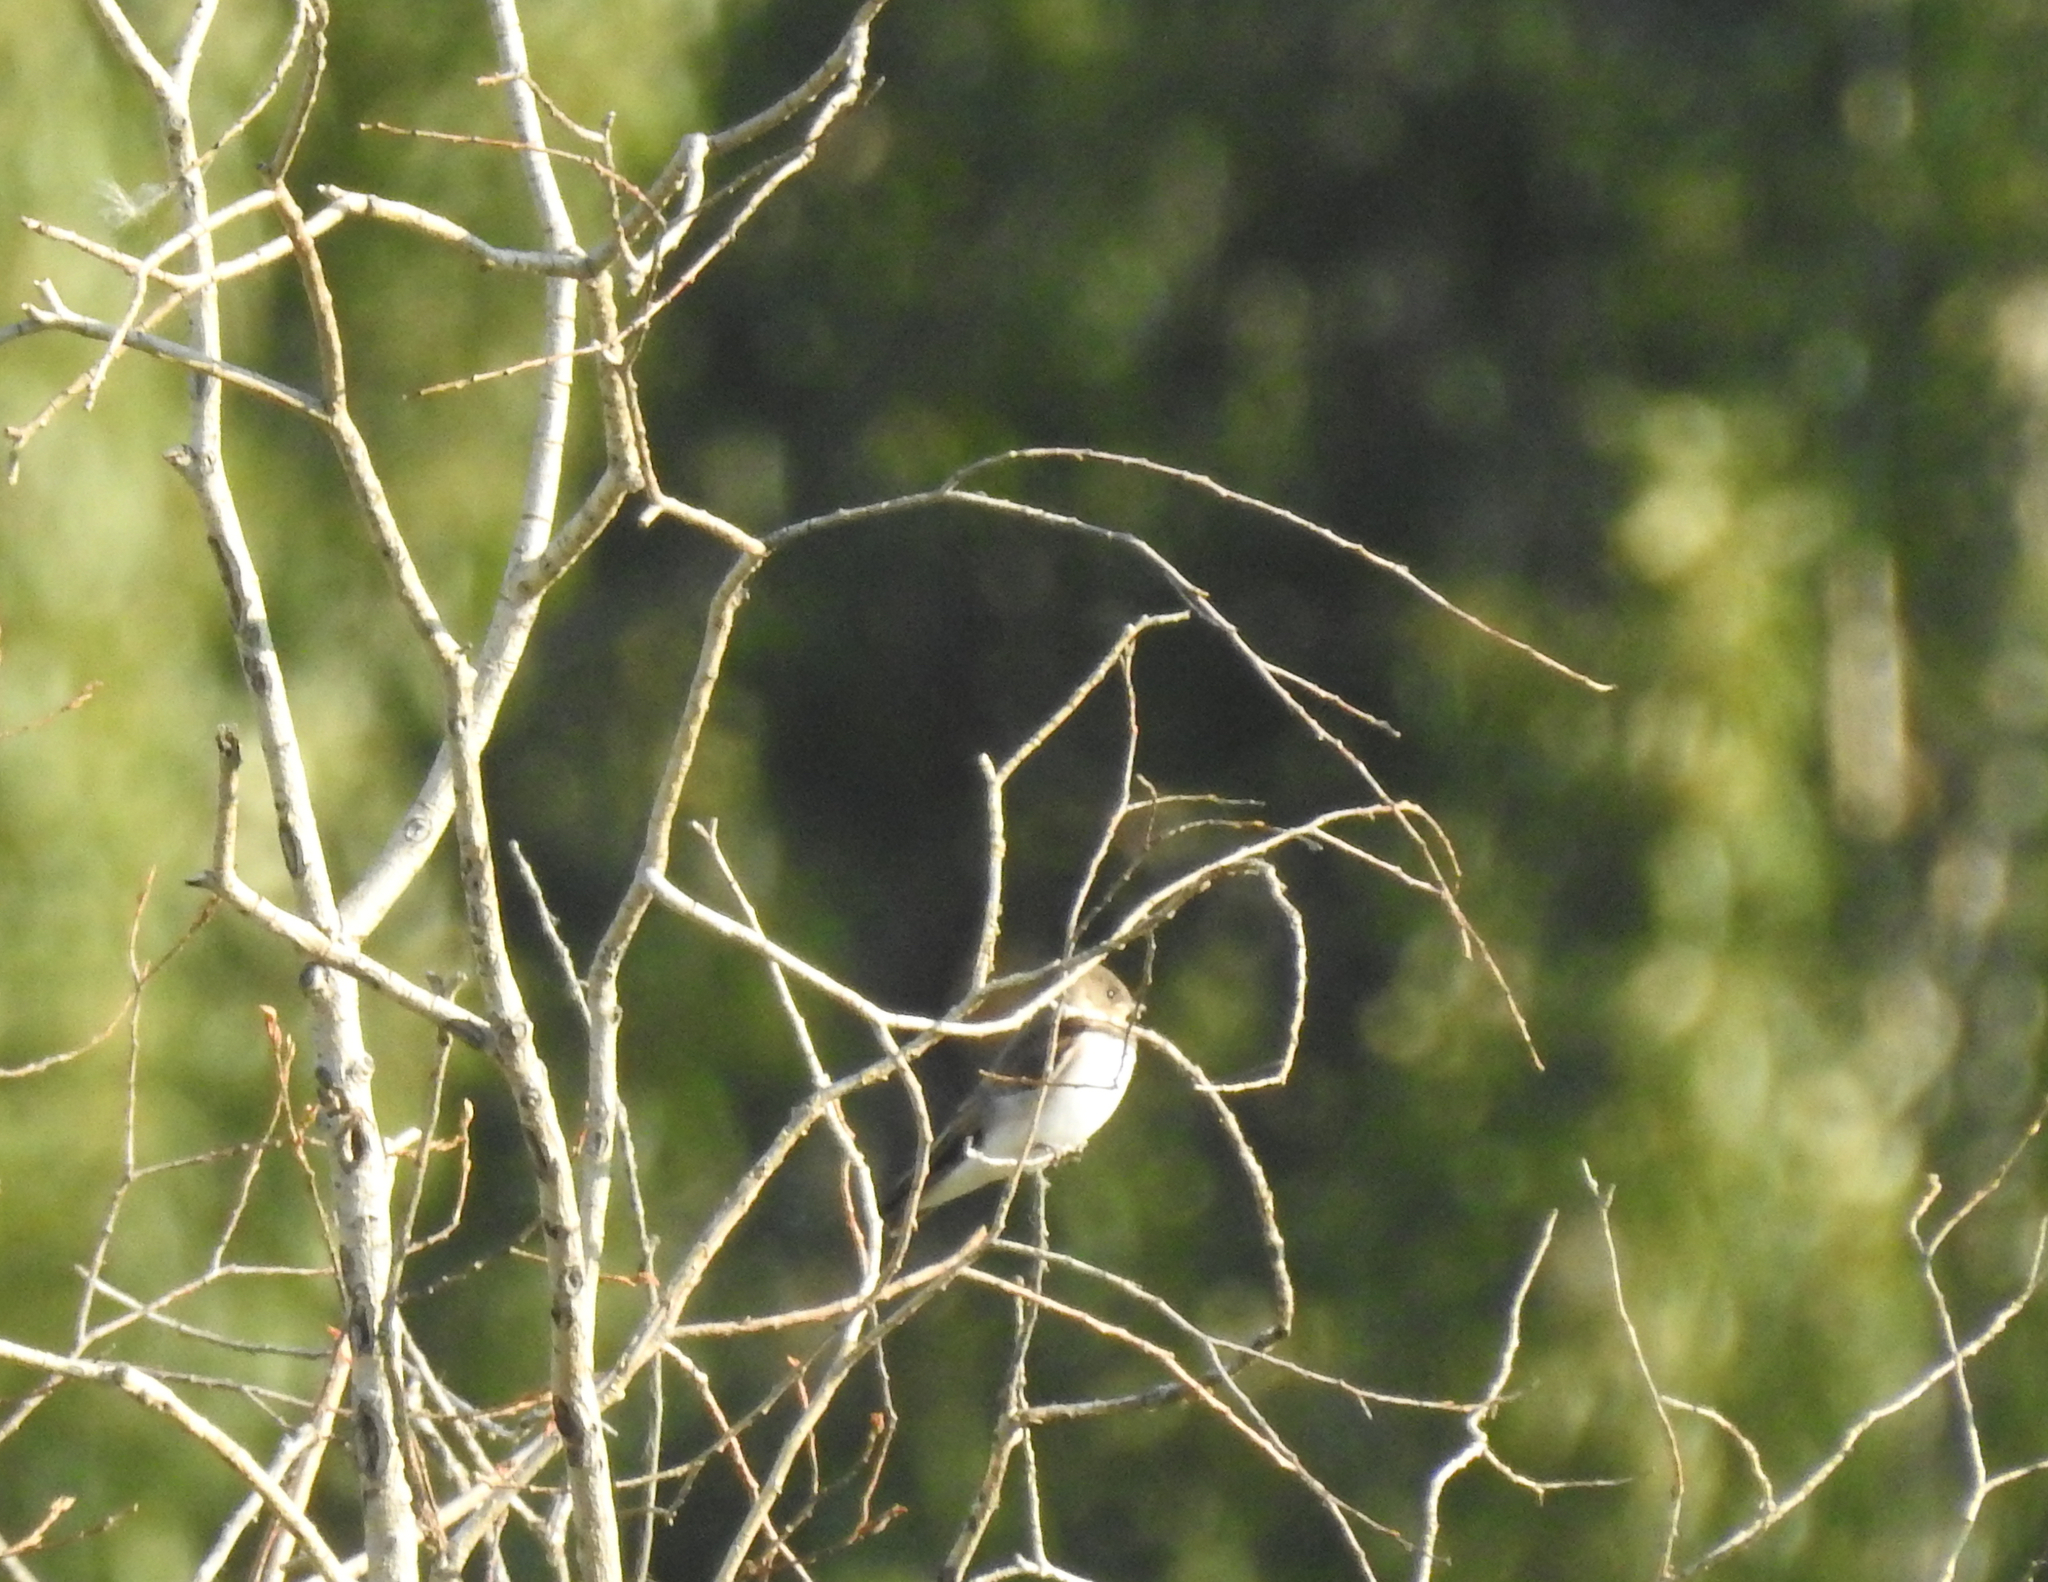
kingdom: Animalia
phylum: Chordata
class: Aves
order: Passeriformes
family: Hirundinidae
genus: Stelgidopteryx
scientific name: Stelgidopteryx serripennis
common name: Northern rough-winged swallow
